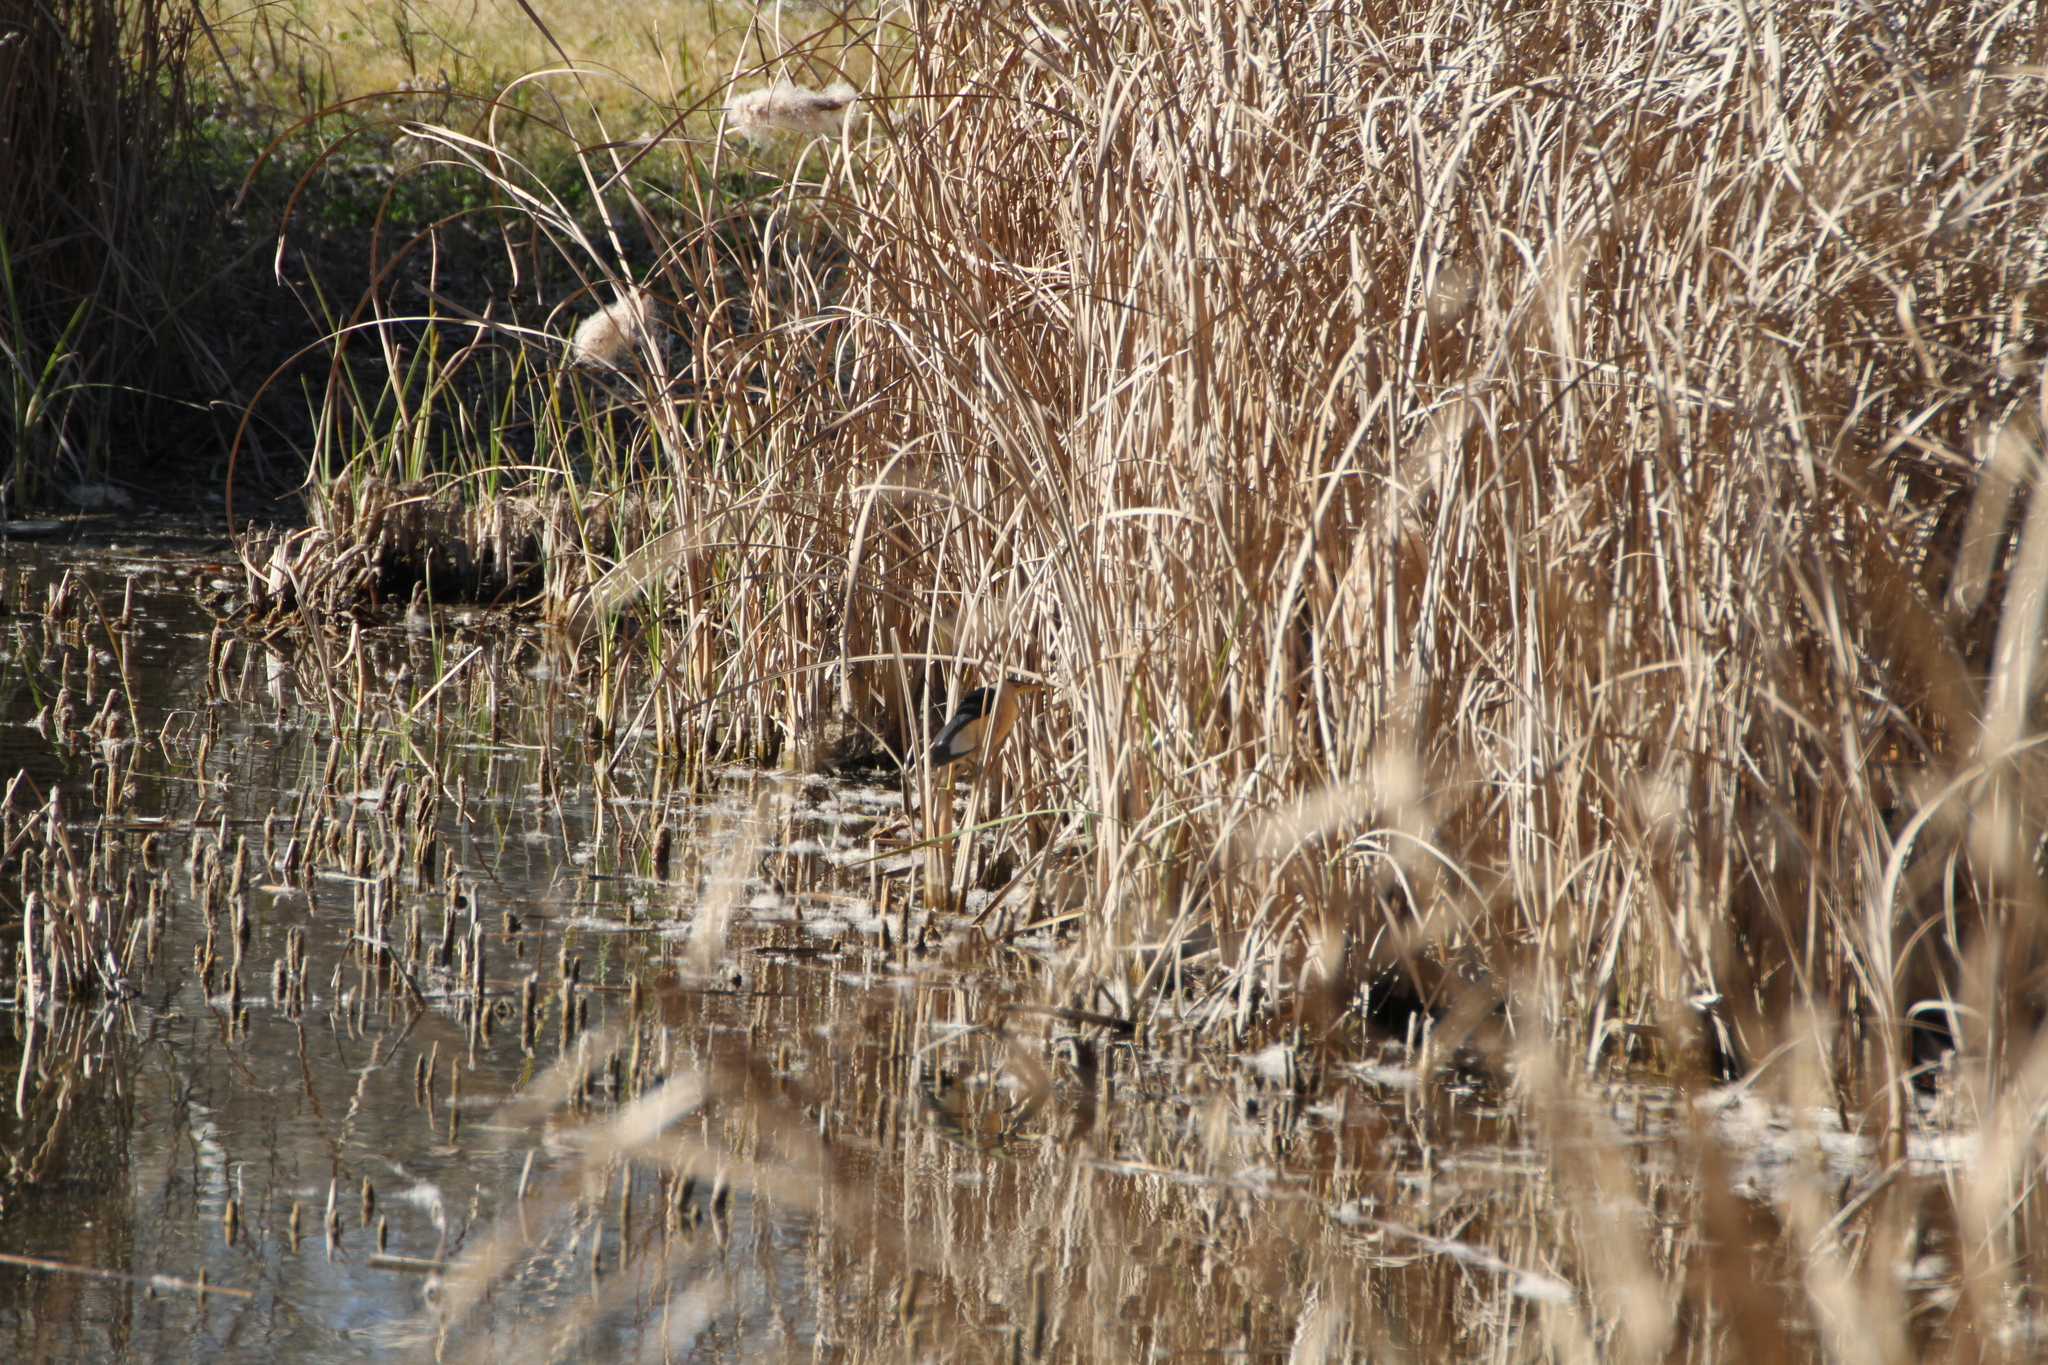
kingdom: Animalia
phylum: Chordata
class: Aves
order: Pelecaniformes
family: Ardeidae
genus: Ixobrychus
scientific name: Ixobrychus minutus
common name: Little bittern
